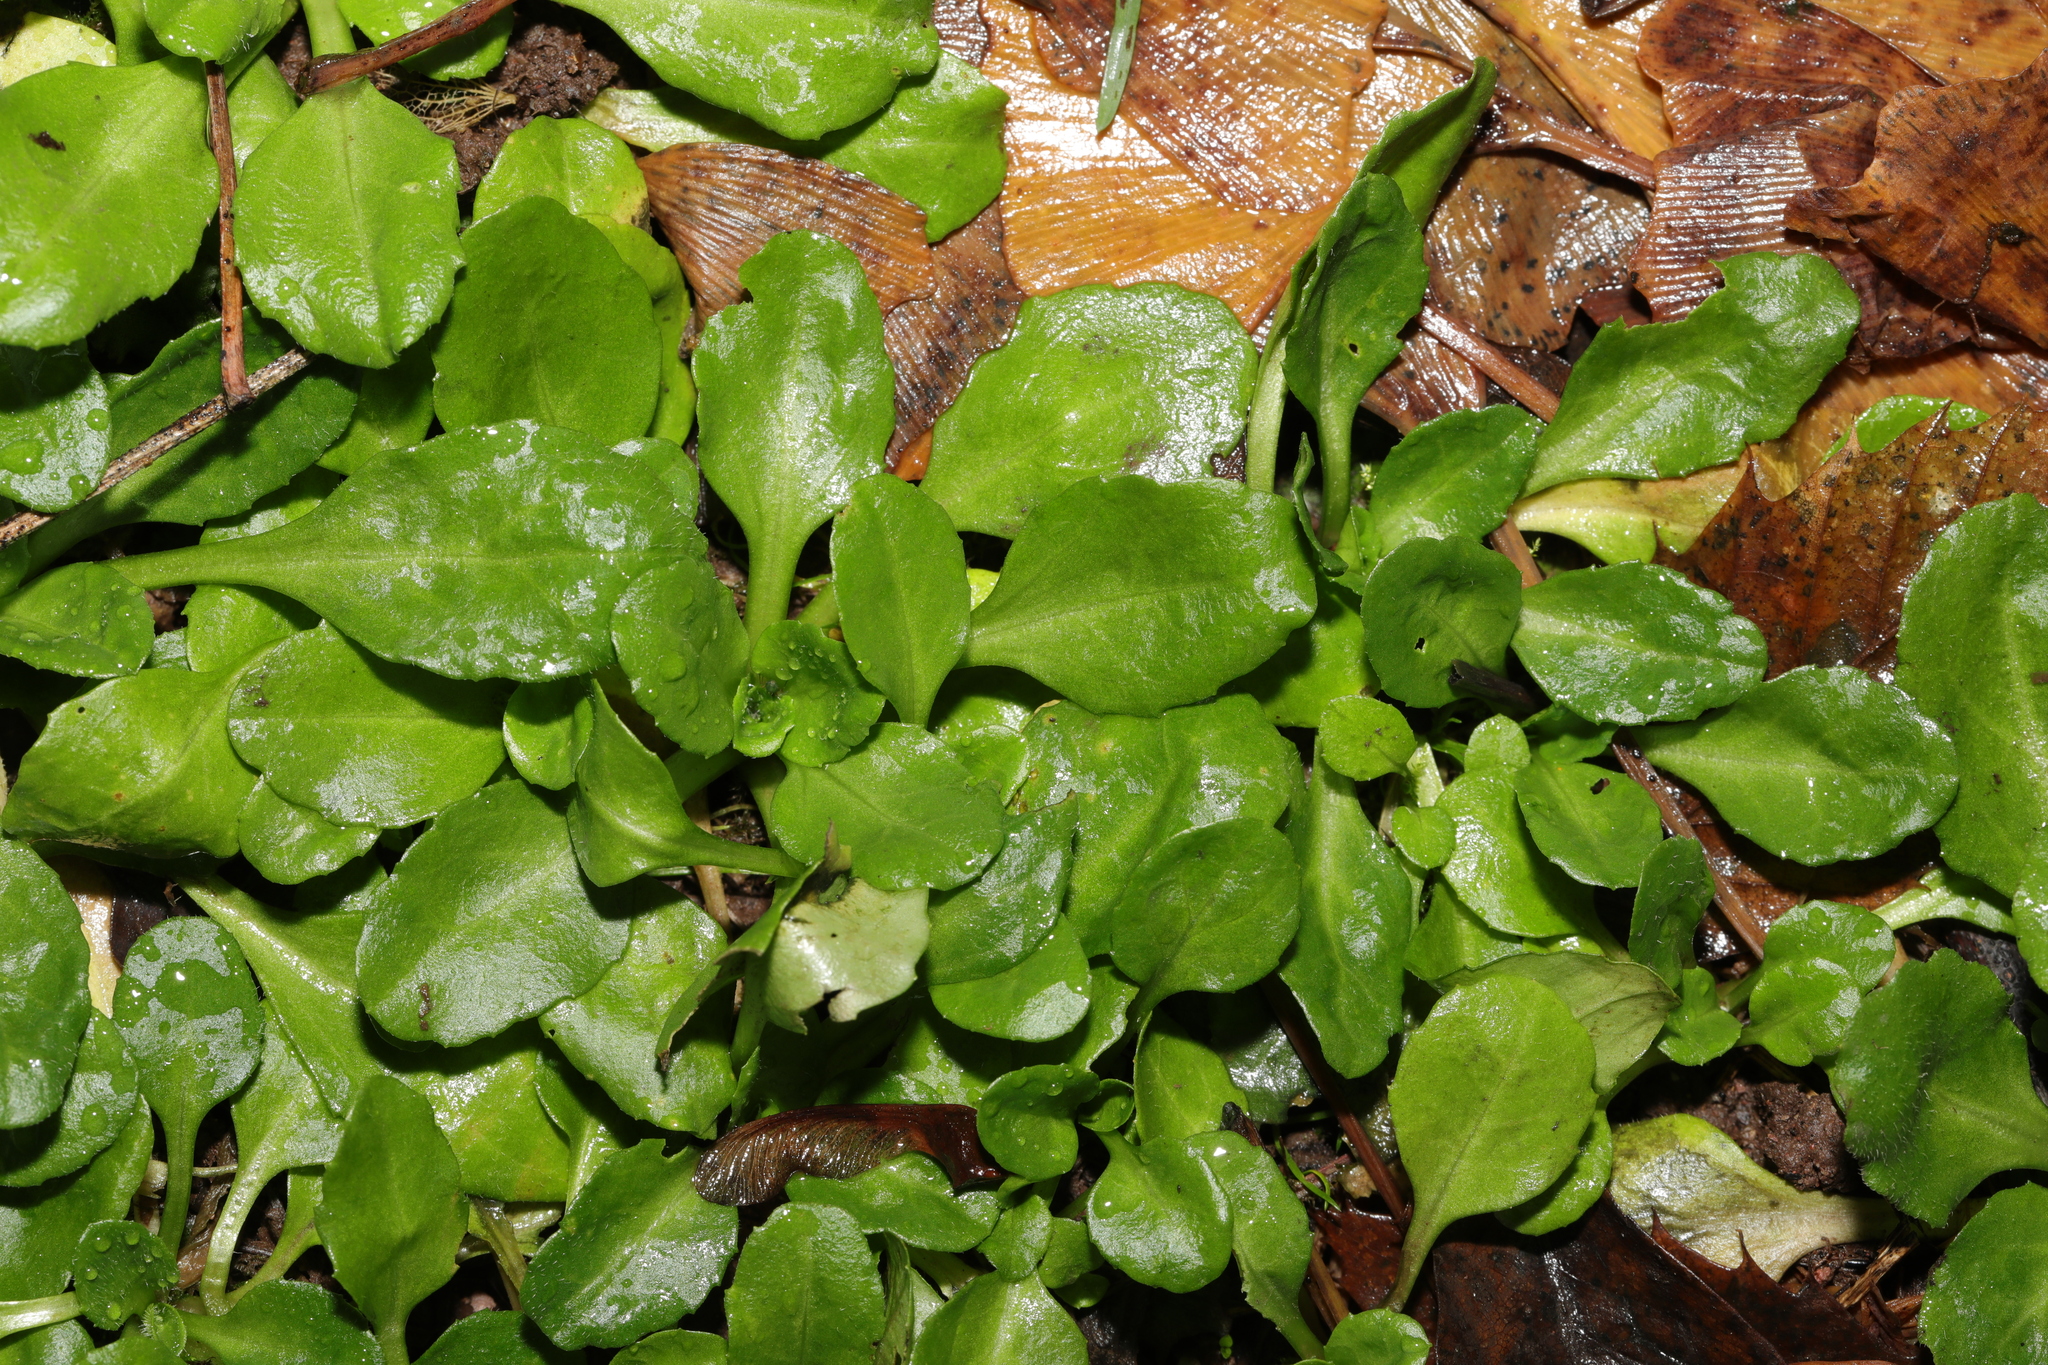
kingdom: Plantae
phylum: Tracheophyta
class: Magnoliopsida
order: Asterales
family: Asteraceae
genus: Bellis
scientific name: Bellis perennis
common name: Lawndaisy
